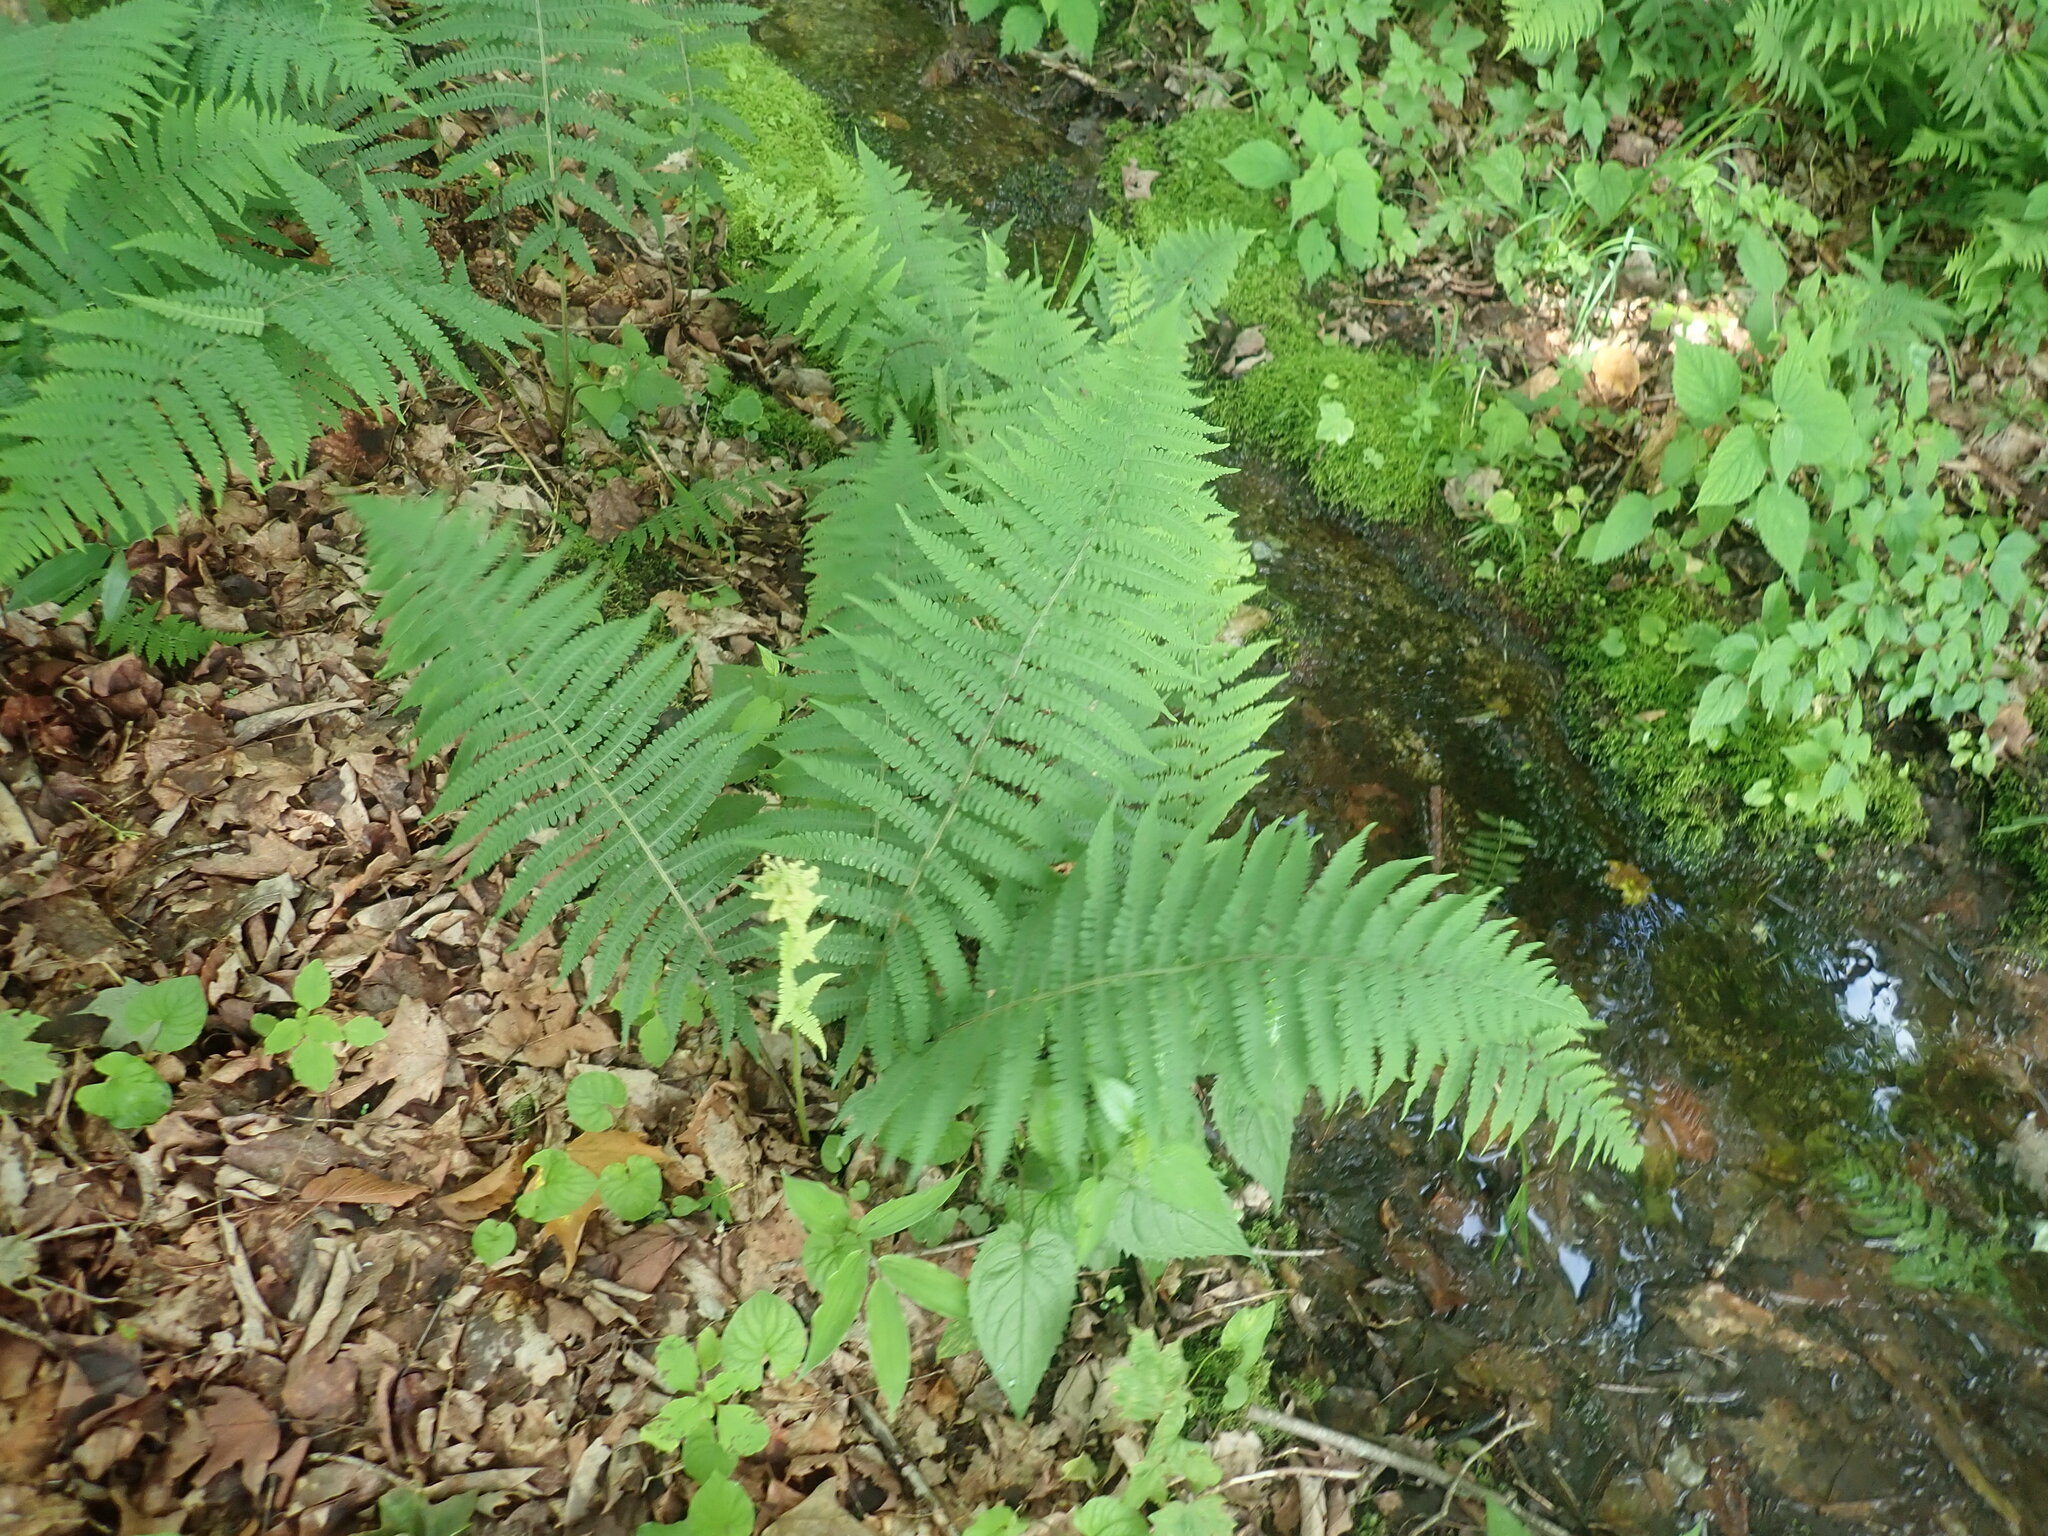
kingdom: Plantae
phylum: Tracheophyta
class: Polypodiopsida
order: Polypodiales
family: Athyriaceae
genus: Deparia
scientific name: Deparia acrostichoides
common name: Silver false spleenwort
